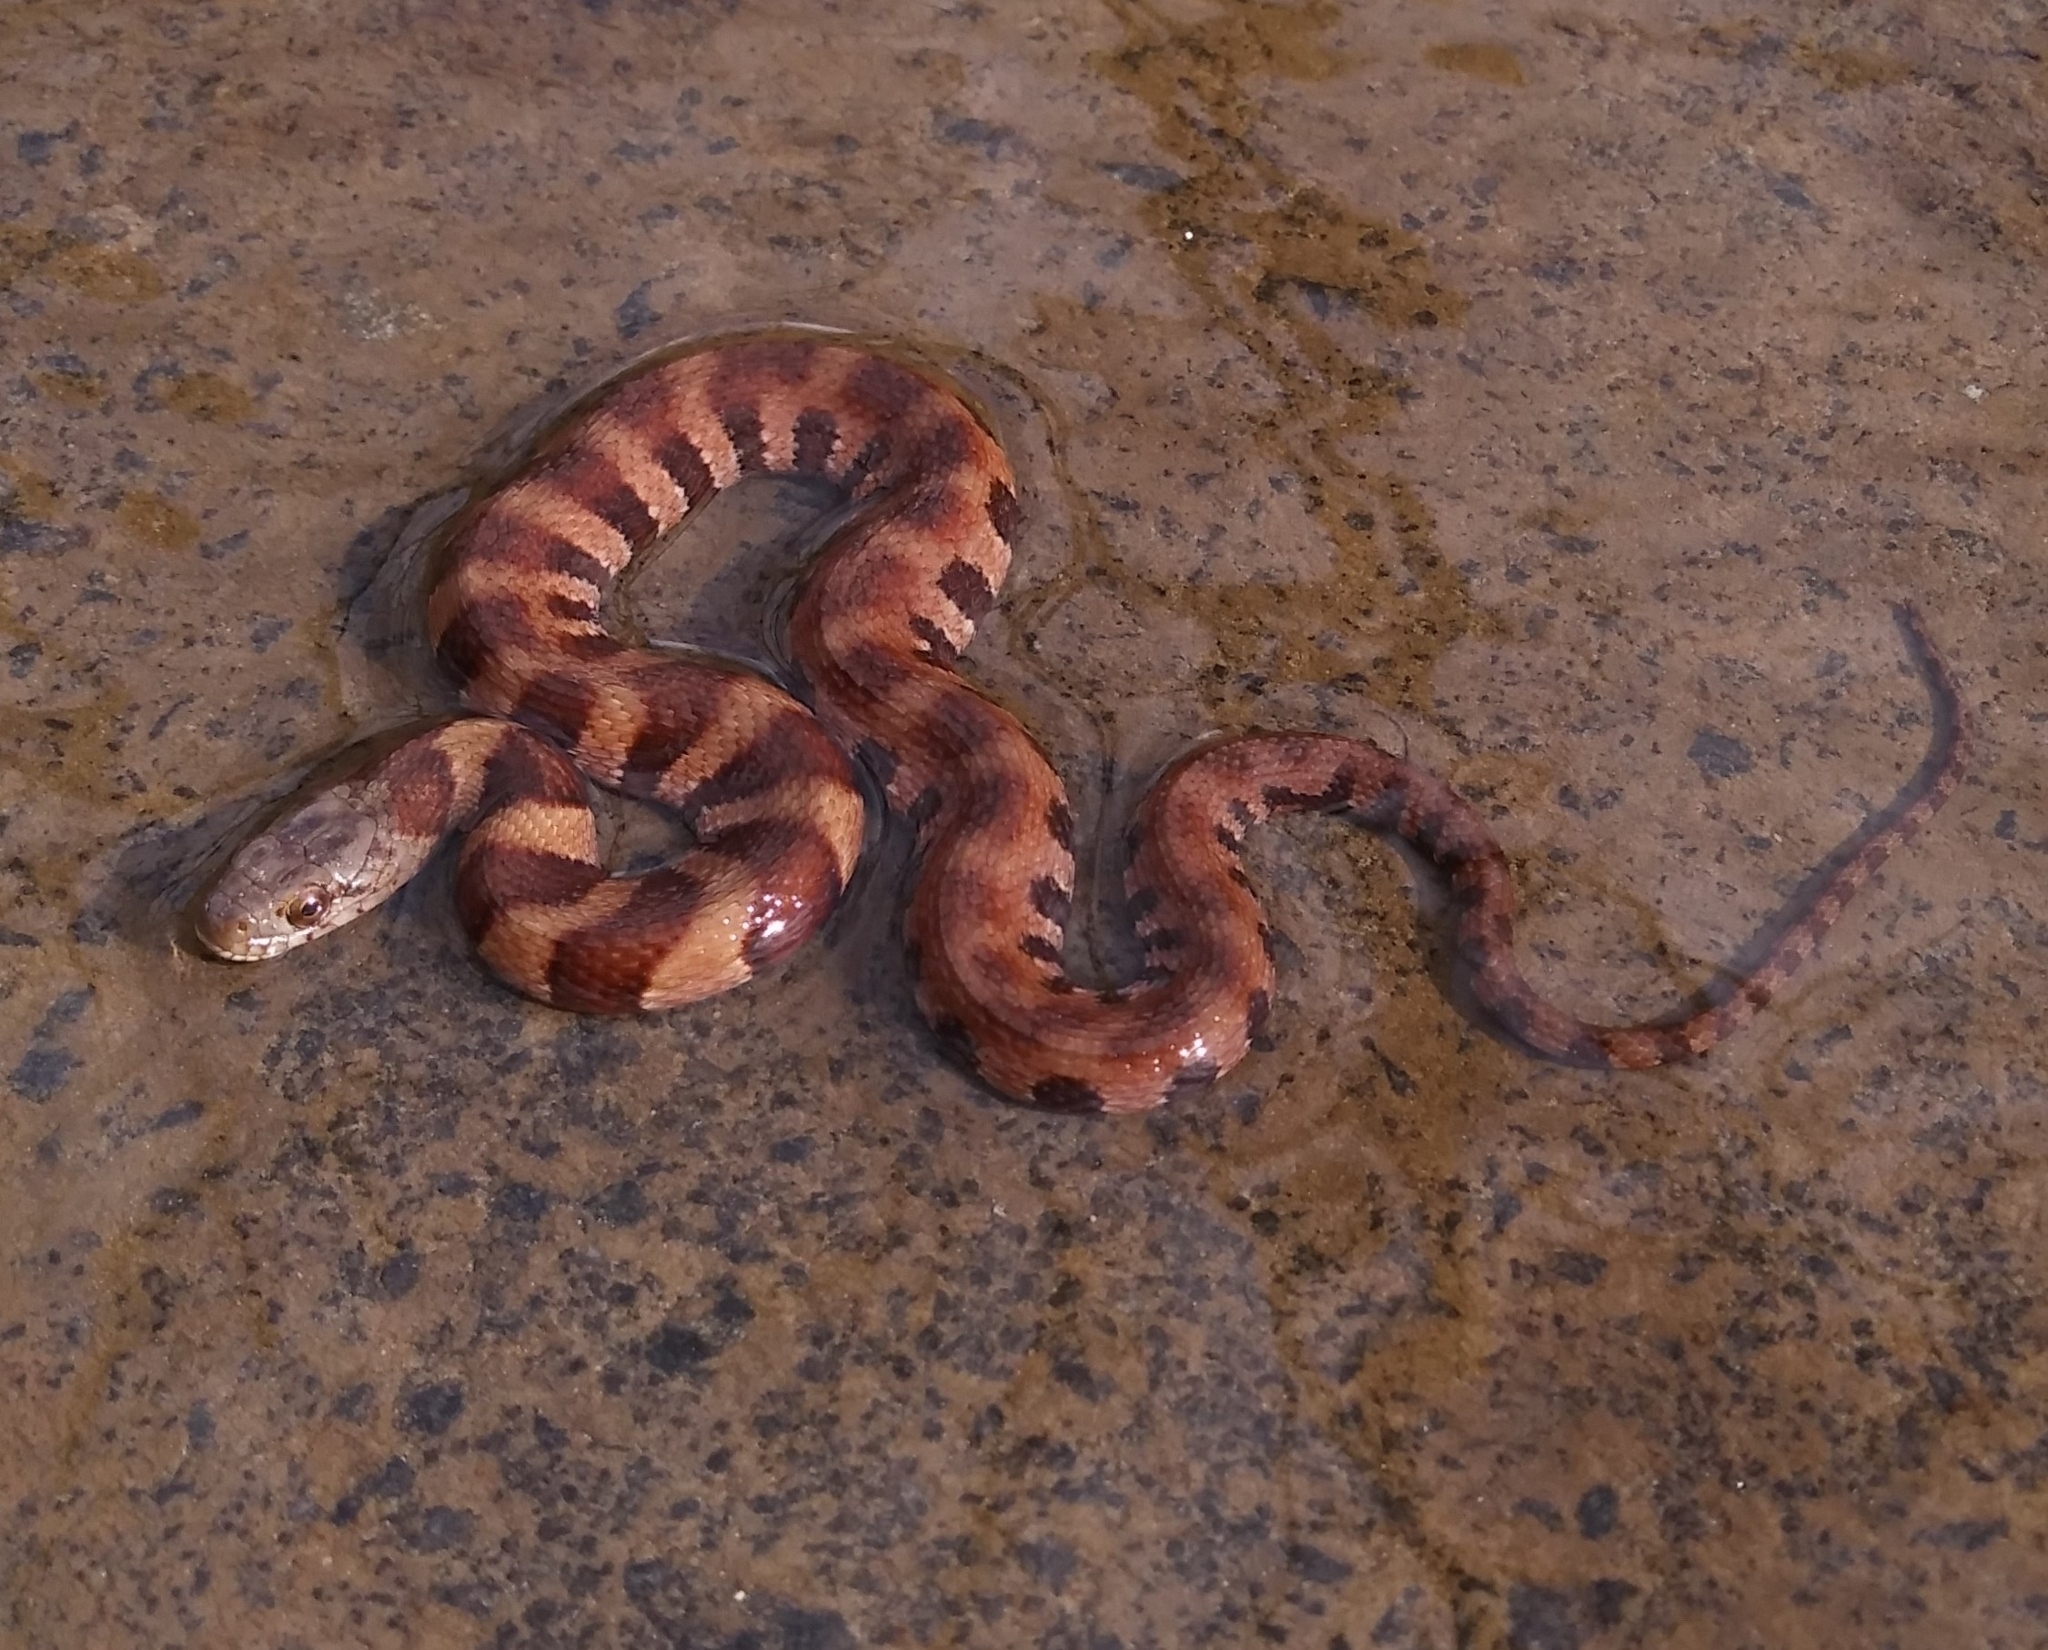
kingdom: Animalia
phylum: Chordata
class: Squamata
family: Colubridae
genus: Nerodia
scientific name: Nerodia sipedon
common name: Northern water snake
